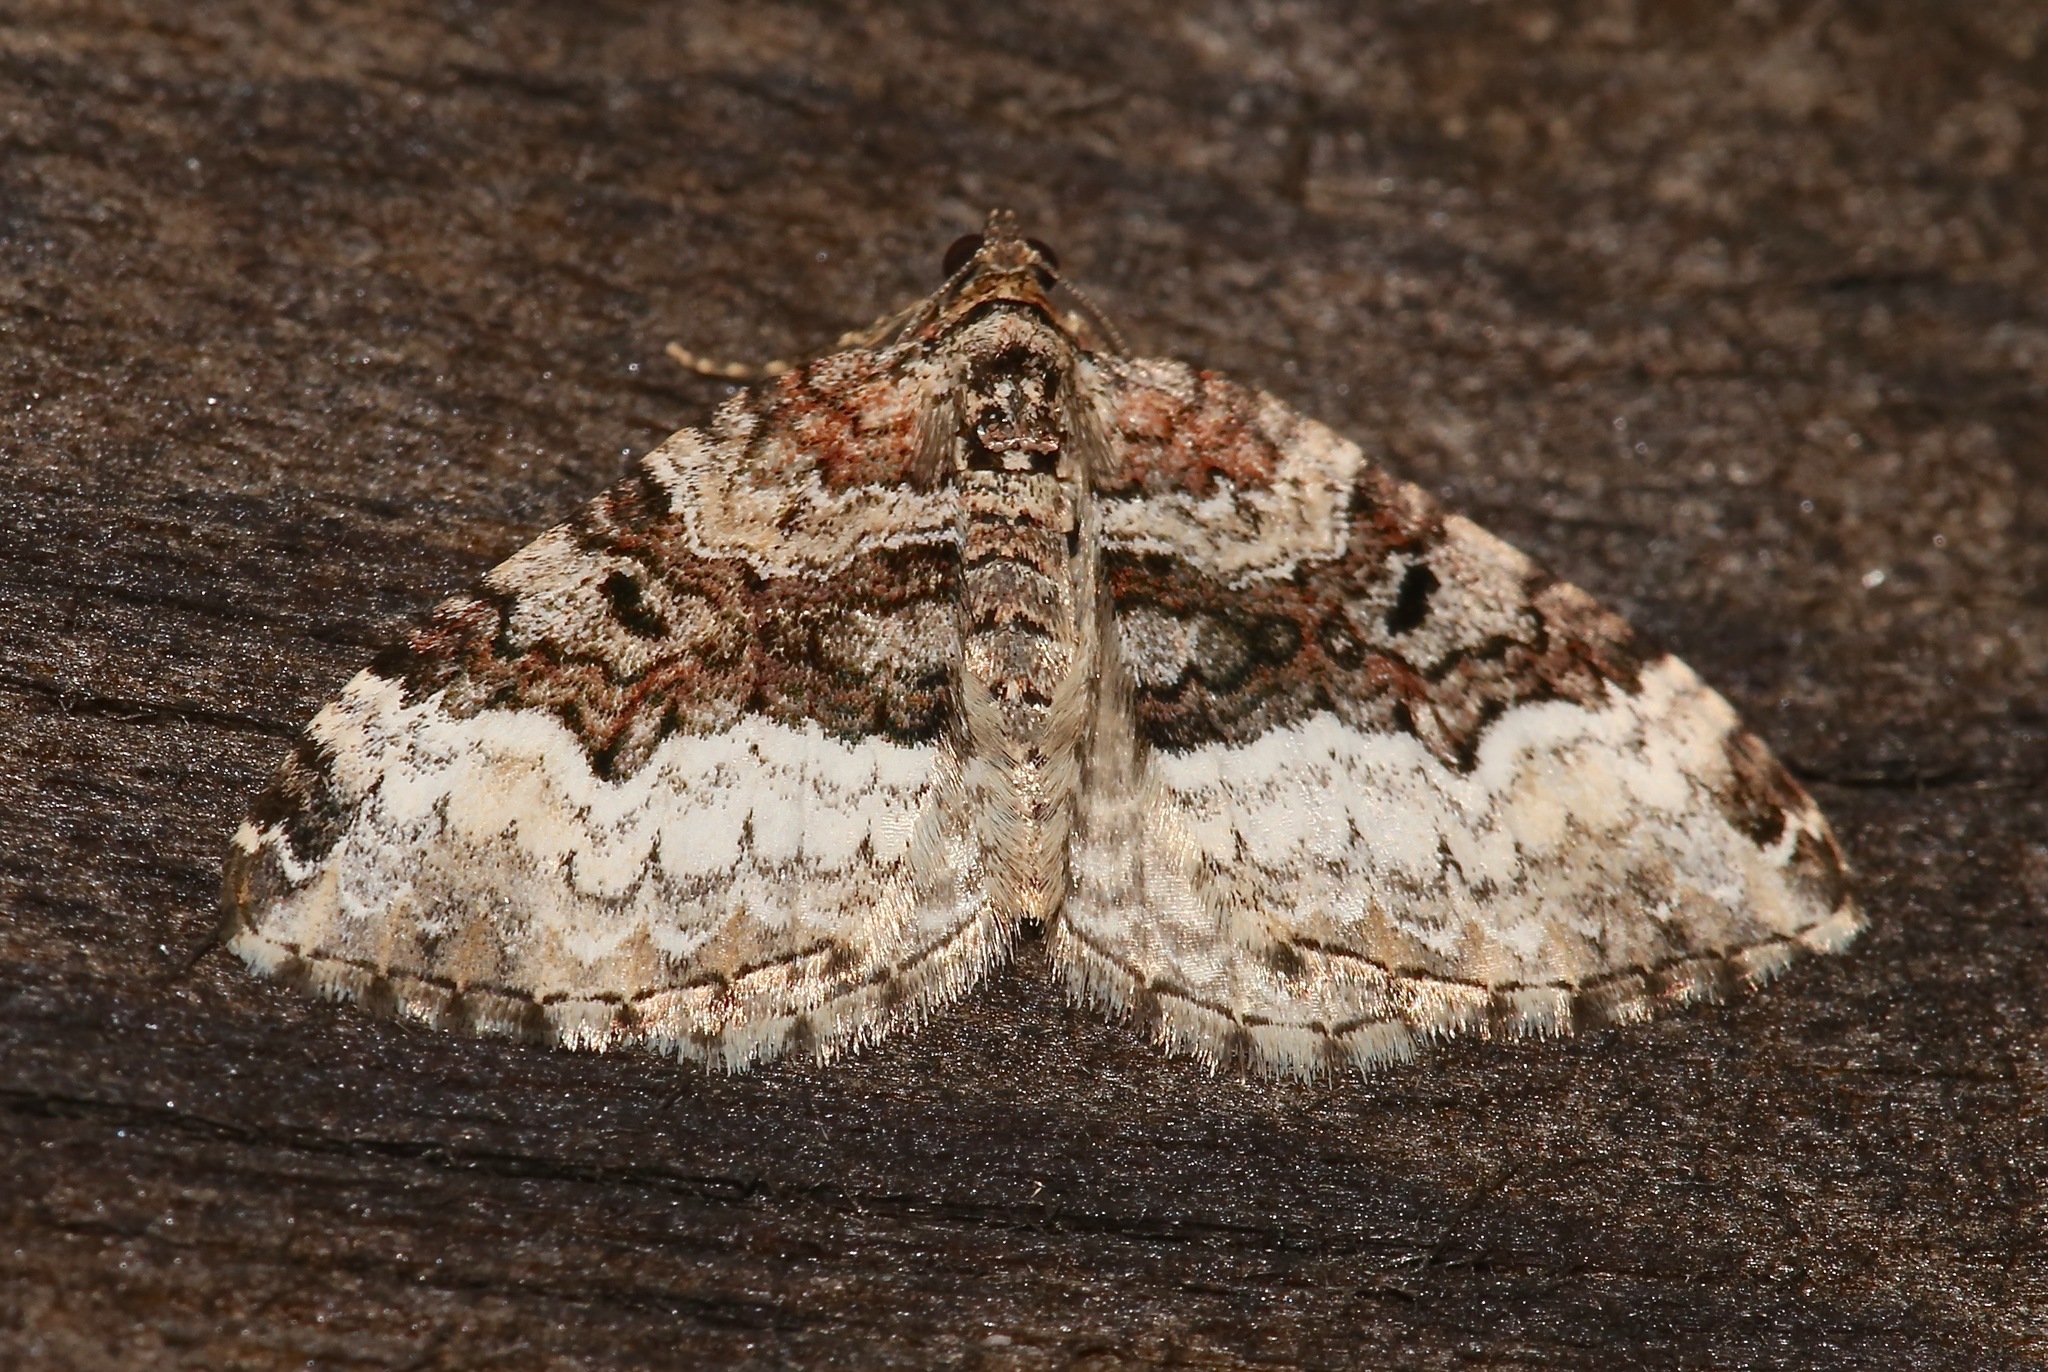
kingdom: Animalia
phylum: Arthropoda
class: Insecta
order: Lepidoptera
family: Geometridae
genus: Euphyia
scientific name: Euphyia intermediata
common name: Sharp-angled carpet
